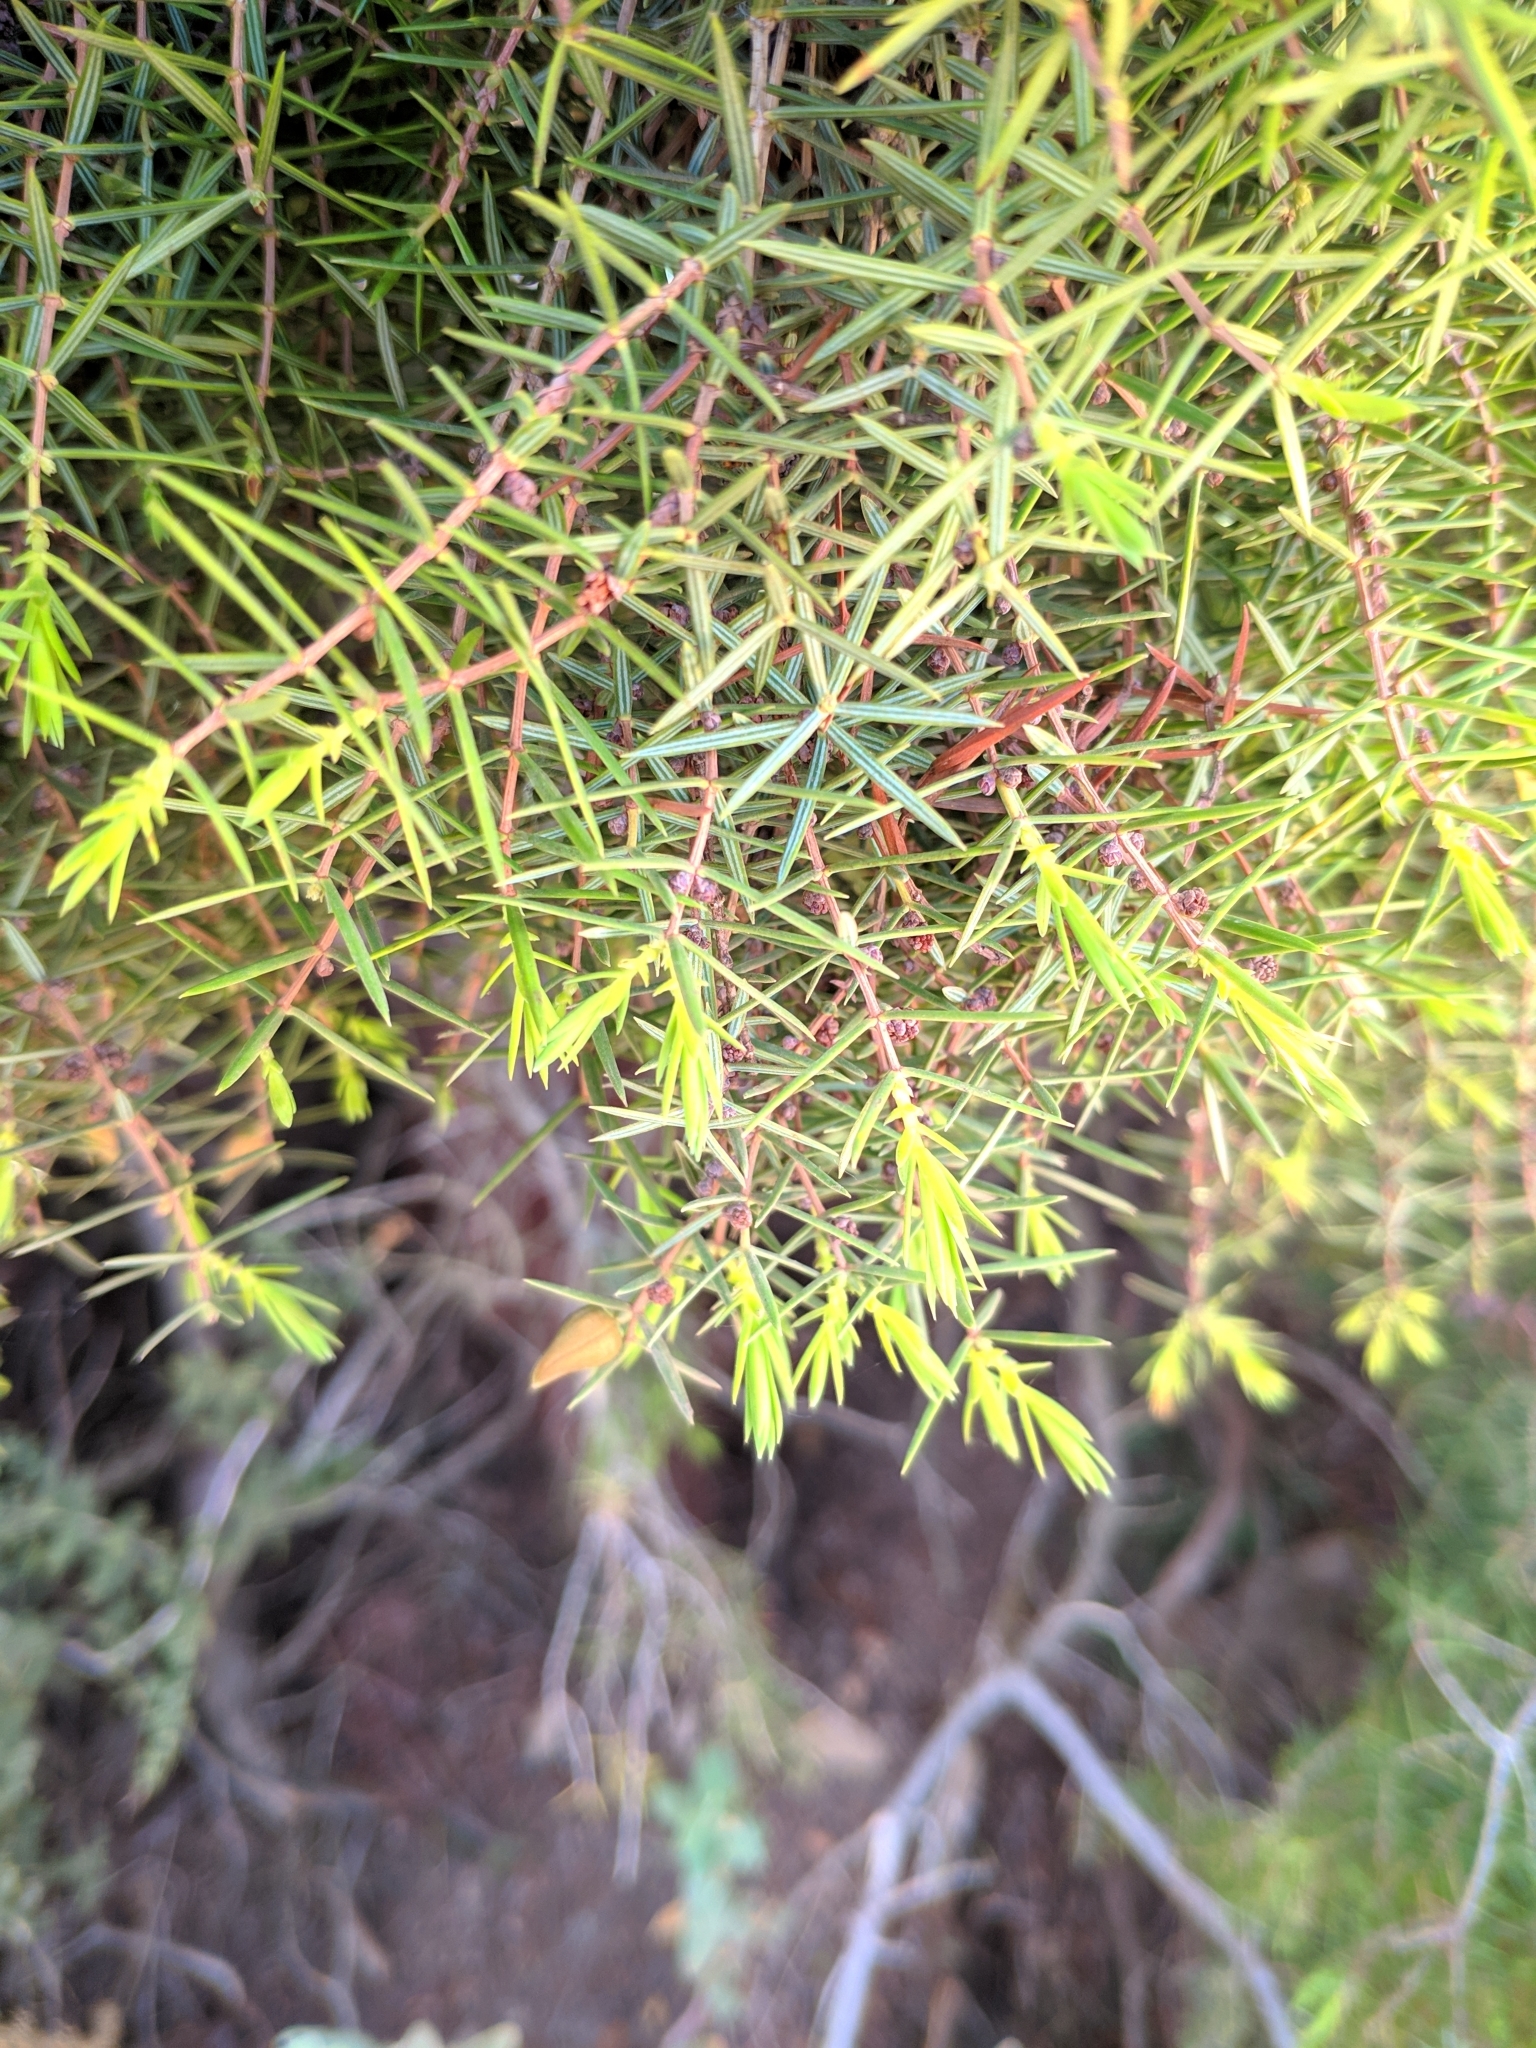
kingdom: Plantae
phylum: Tracheophyta
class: Pinopsida
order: Pinales
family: Cupressaceae
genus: Juniperus
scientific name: Juniperus oxycedrus
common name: Prickly juniper
